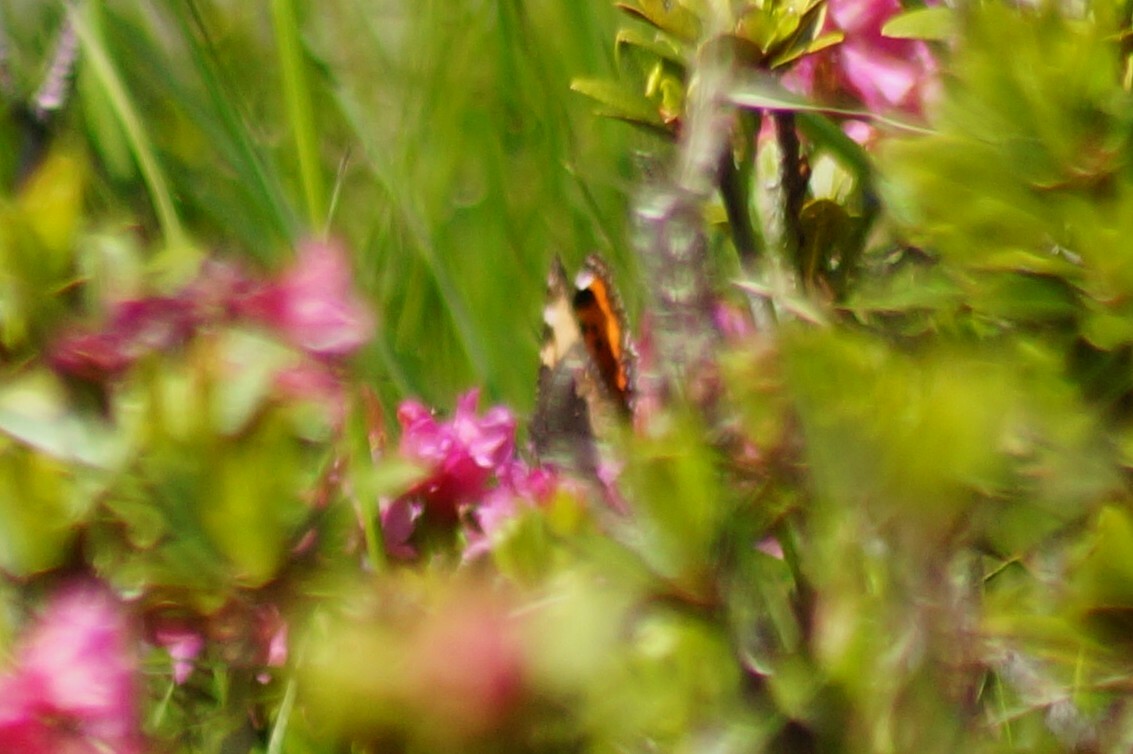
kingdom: Animalia
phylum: Arthropoda
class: Insecta
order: Lepidoptera
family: Nymphalidae
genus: Aglais
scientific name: Aglais urticae
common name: Small tortoiseshell
